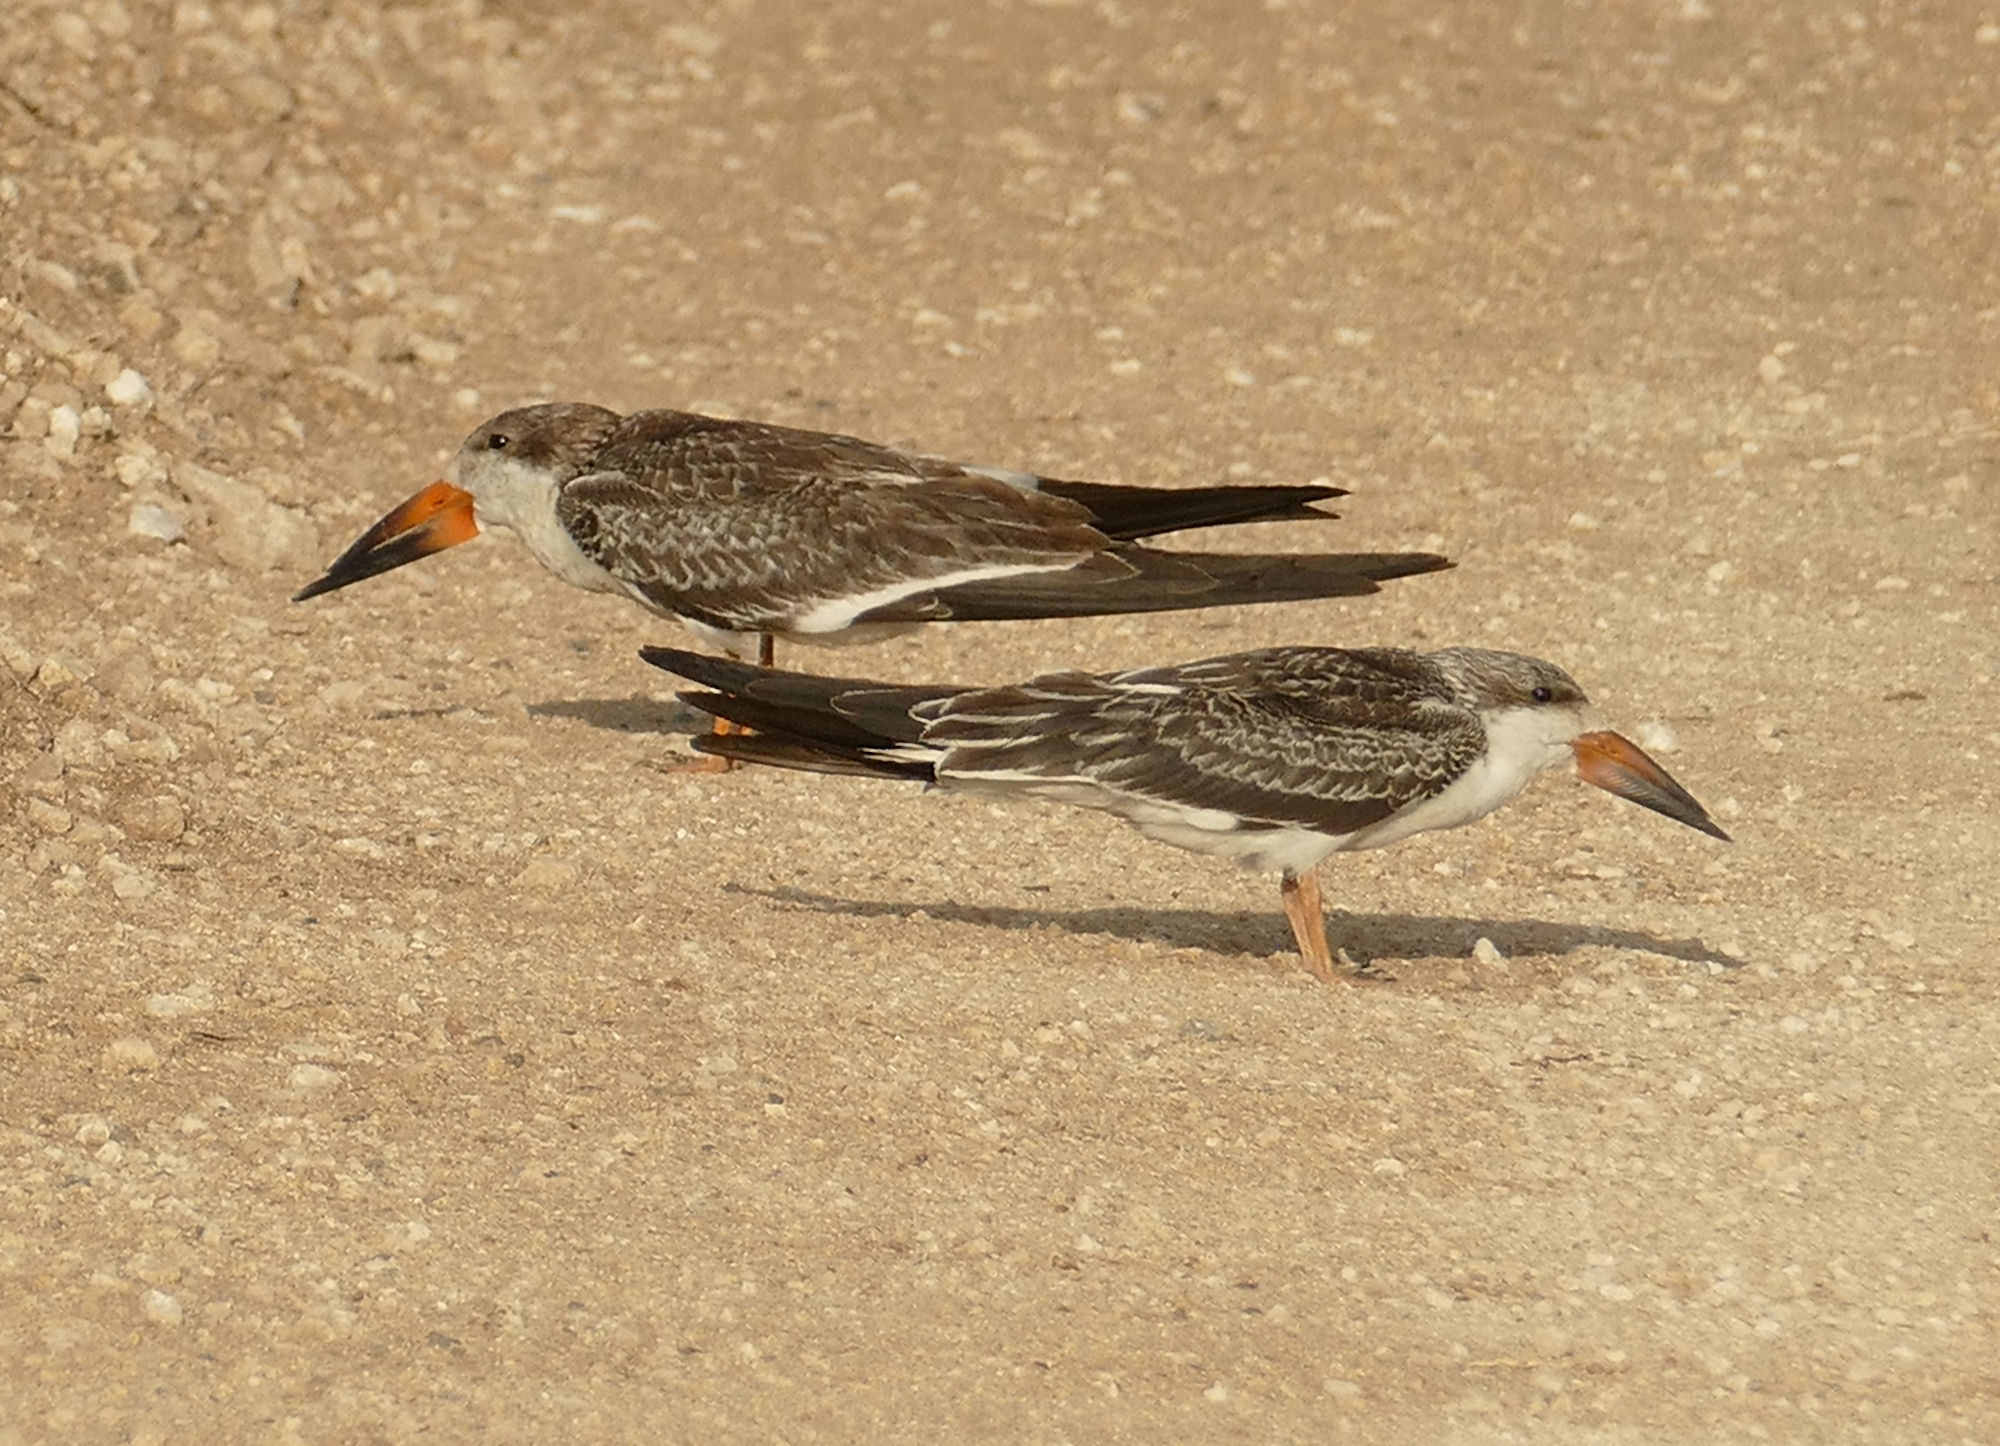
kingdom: Animalia
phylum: Chordata
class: Aves
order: Charadriiformes
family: Laridae
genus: Rynchops
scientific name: Rynchops niger
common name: Black skimmer
